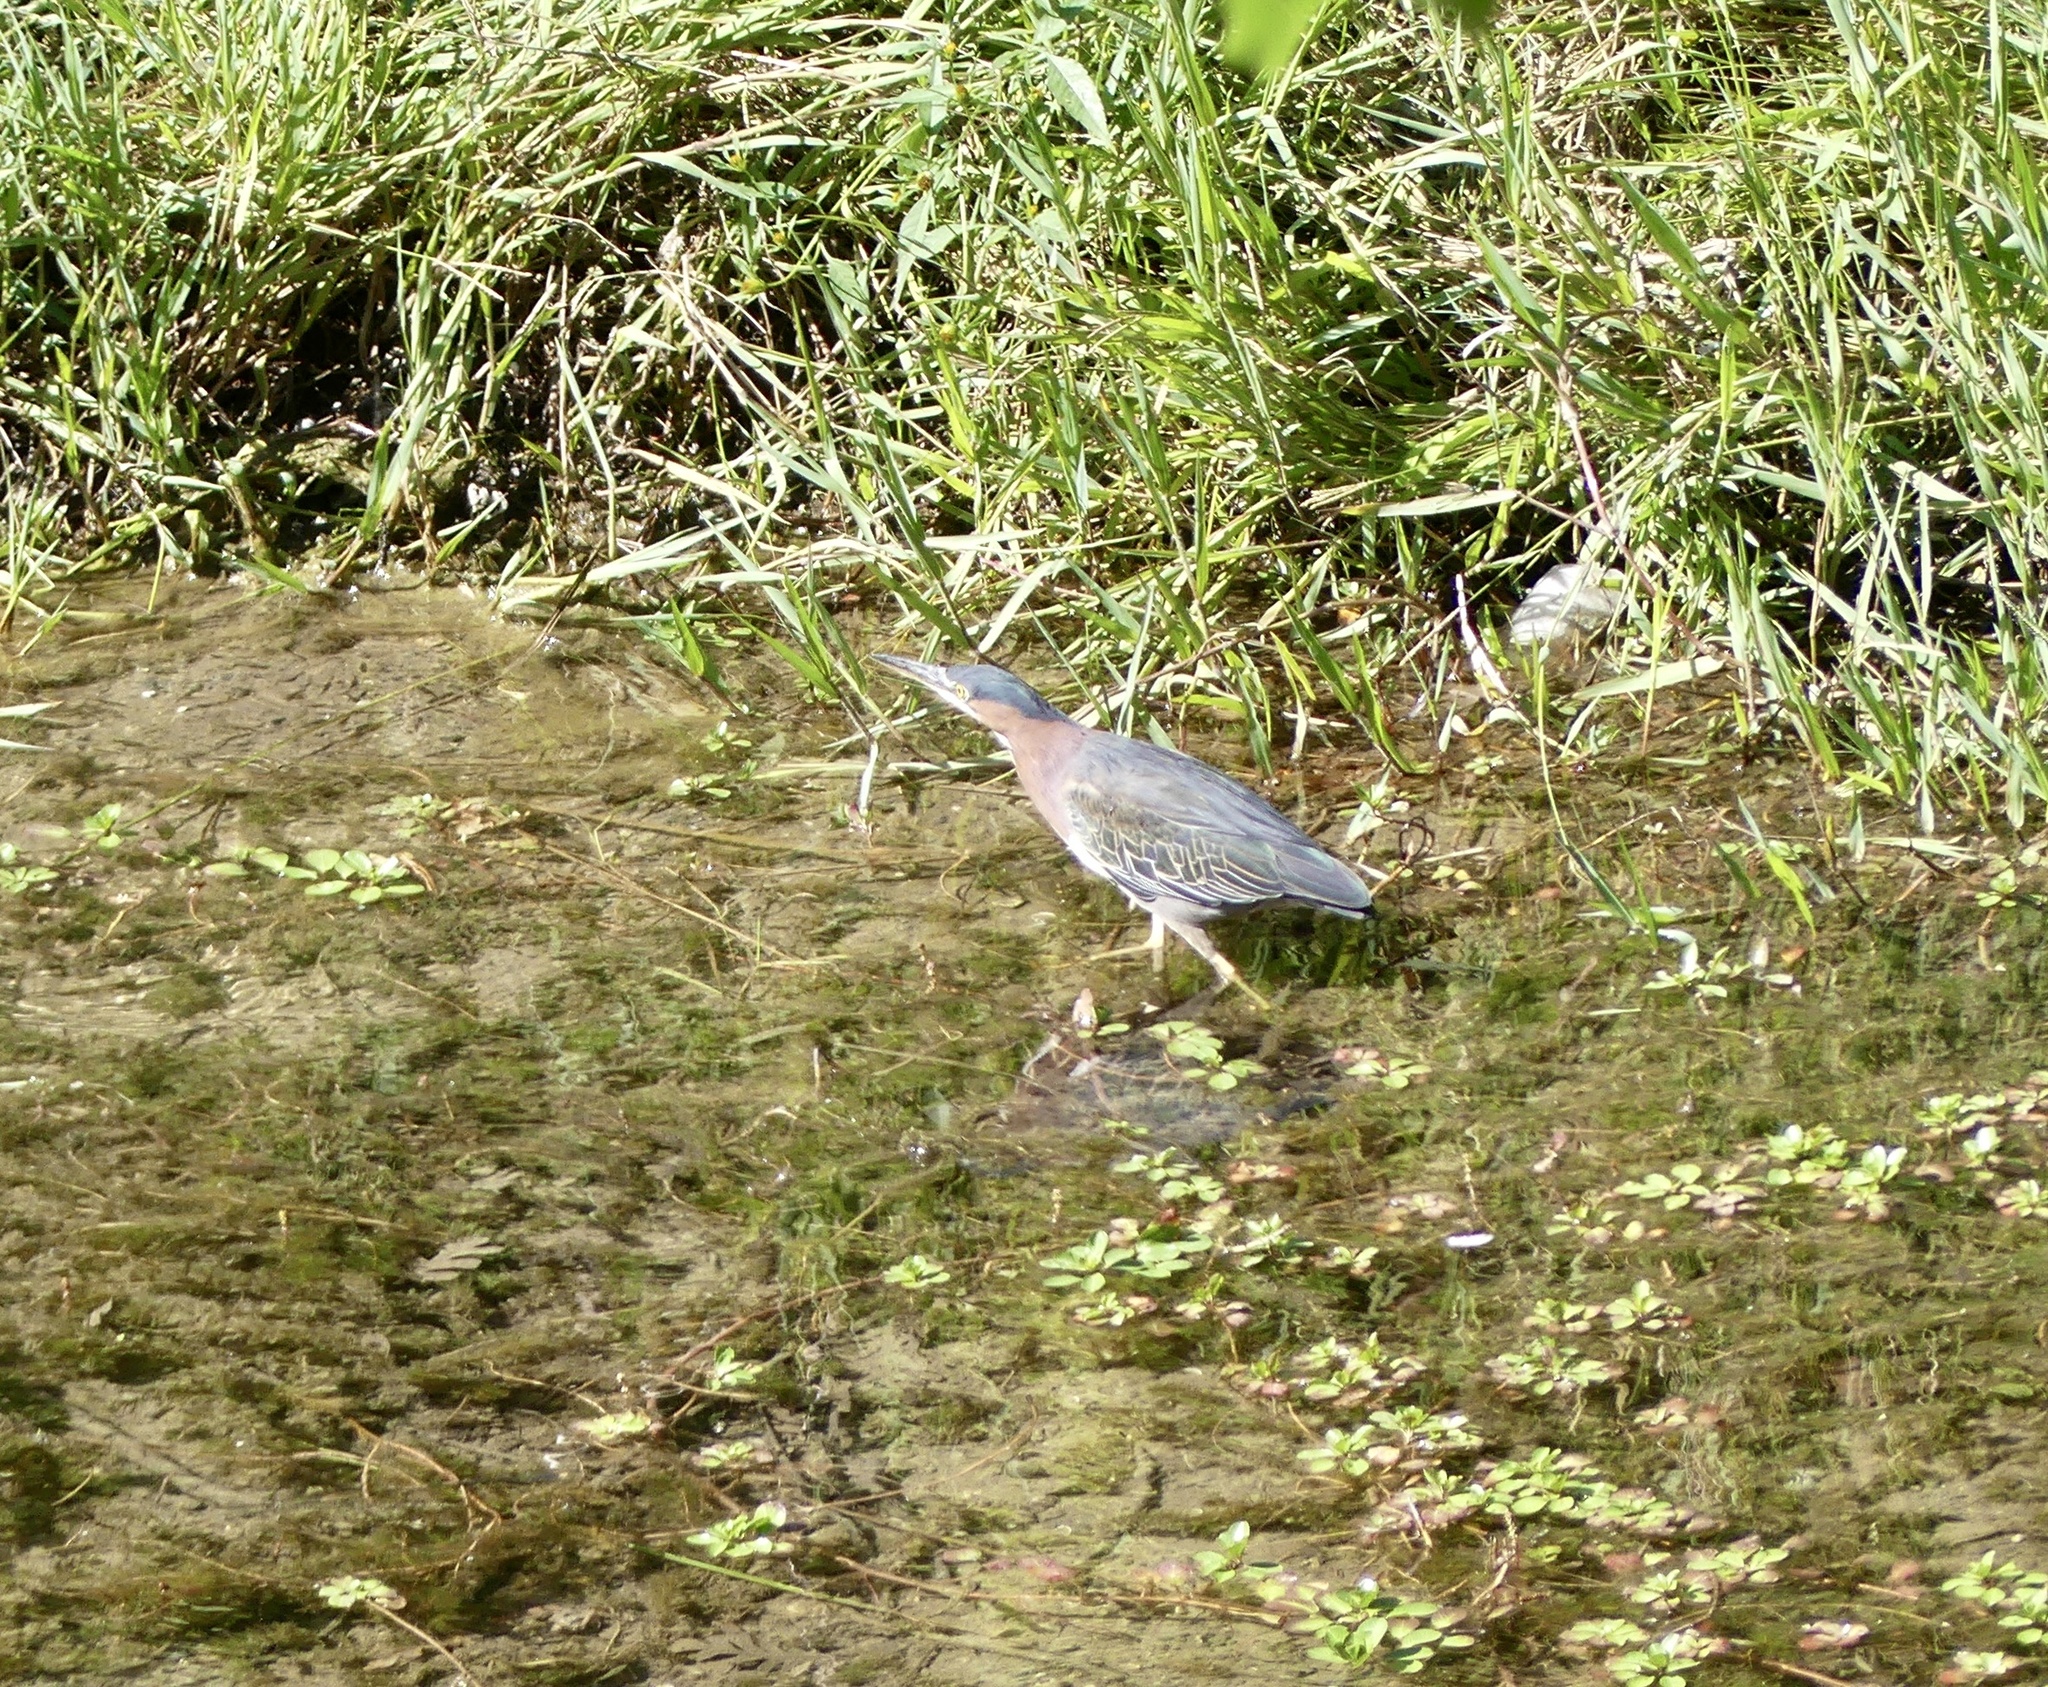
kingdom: Animalia
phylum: Chordata
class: Aves
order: Pelecaniformes
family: Ardeidae
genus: Butorides
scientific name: Butorides virescens
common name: Green heron
